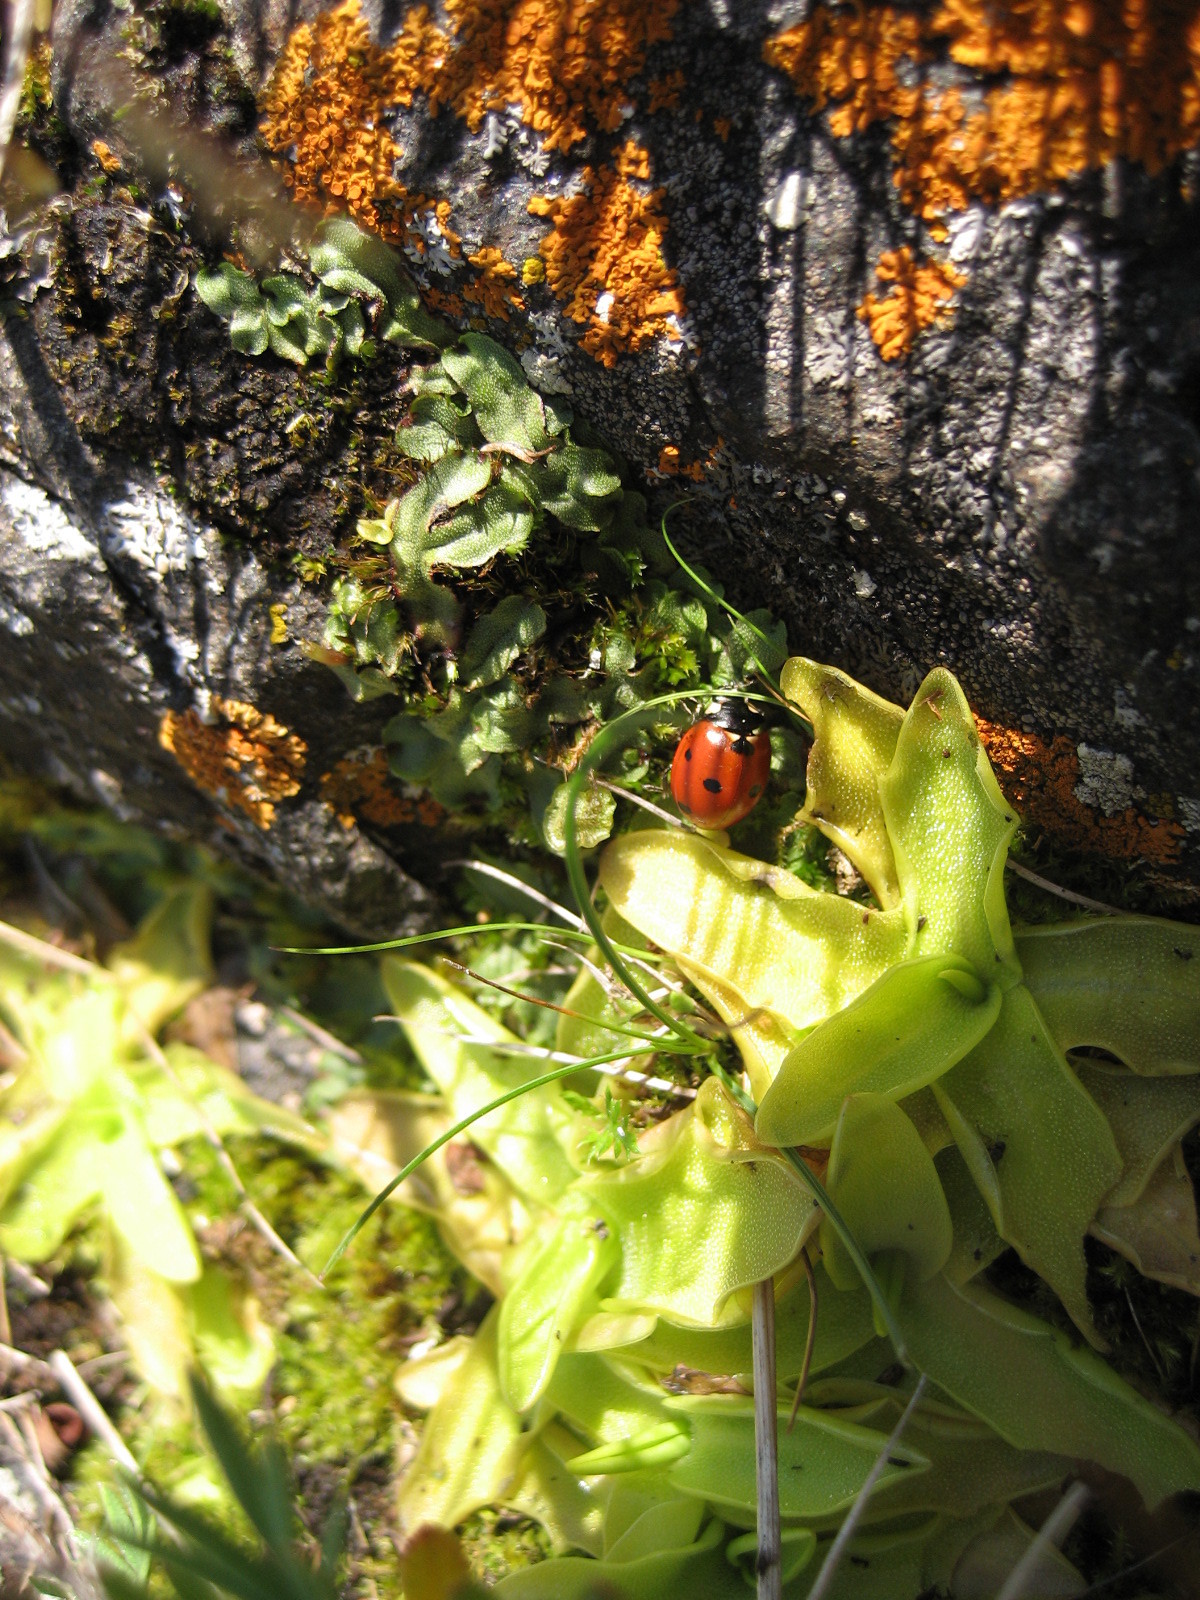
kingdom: Plantae
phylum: Tracheophyta
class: Magnoliopsida
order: Lamiales
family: Lentibulariaceae
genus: Pinguicula
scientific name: Pinguicula vulgaris
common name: Common butterwort
